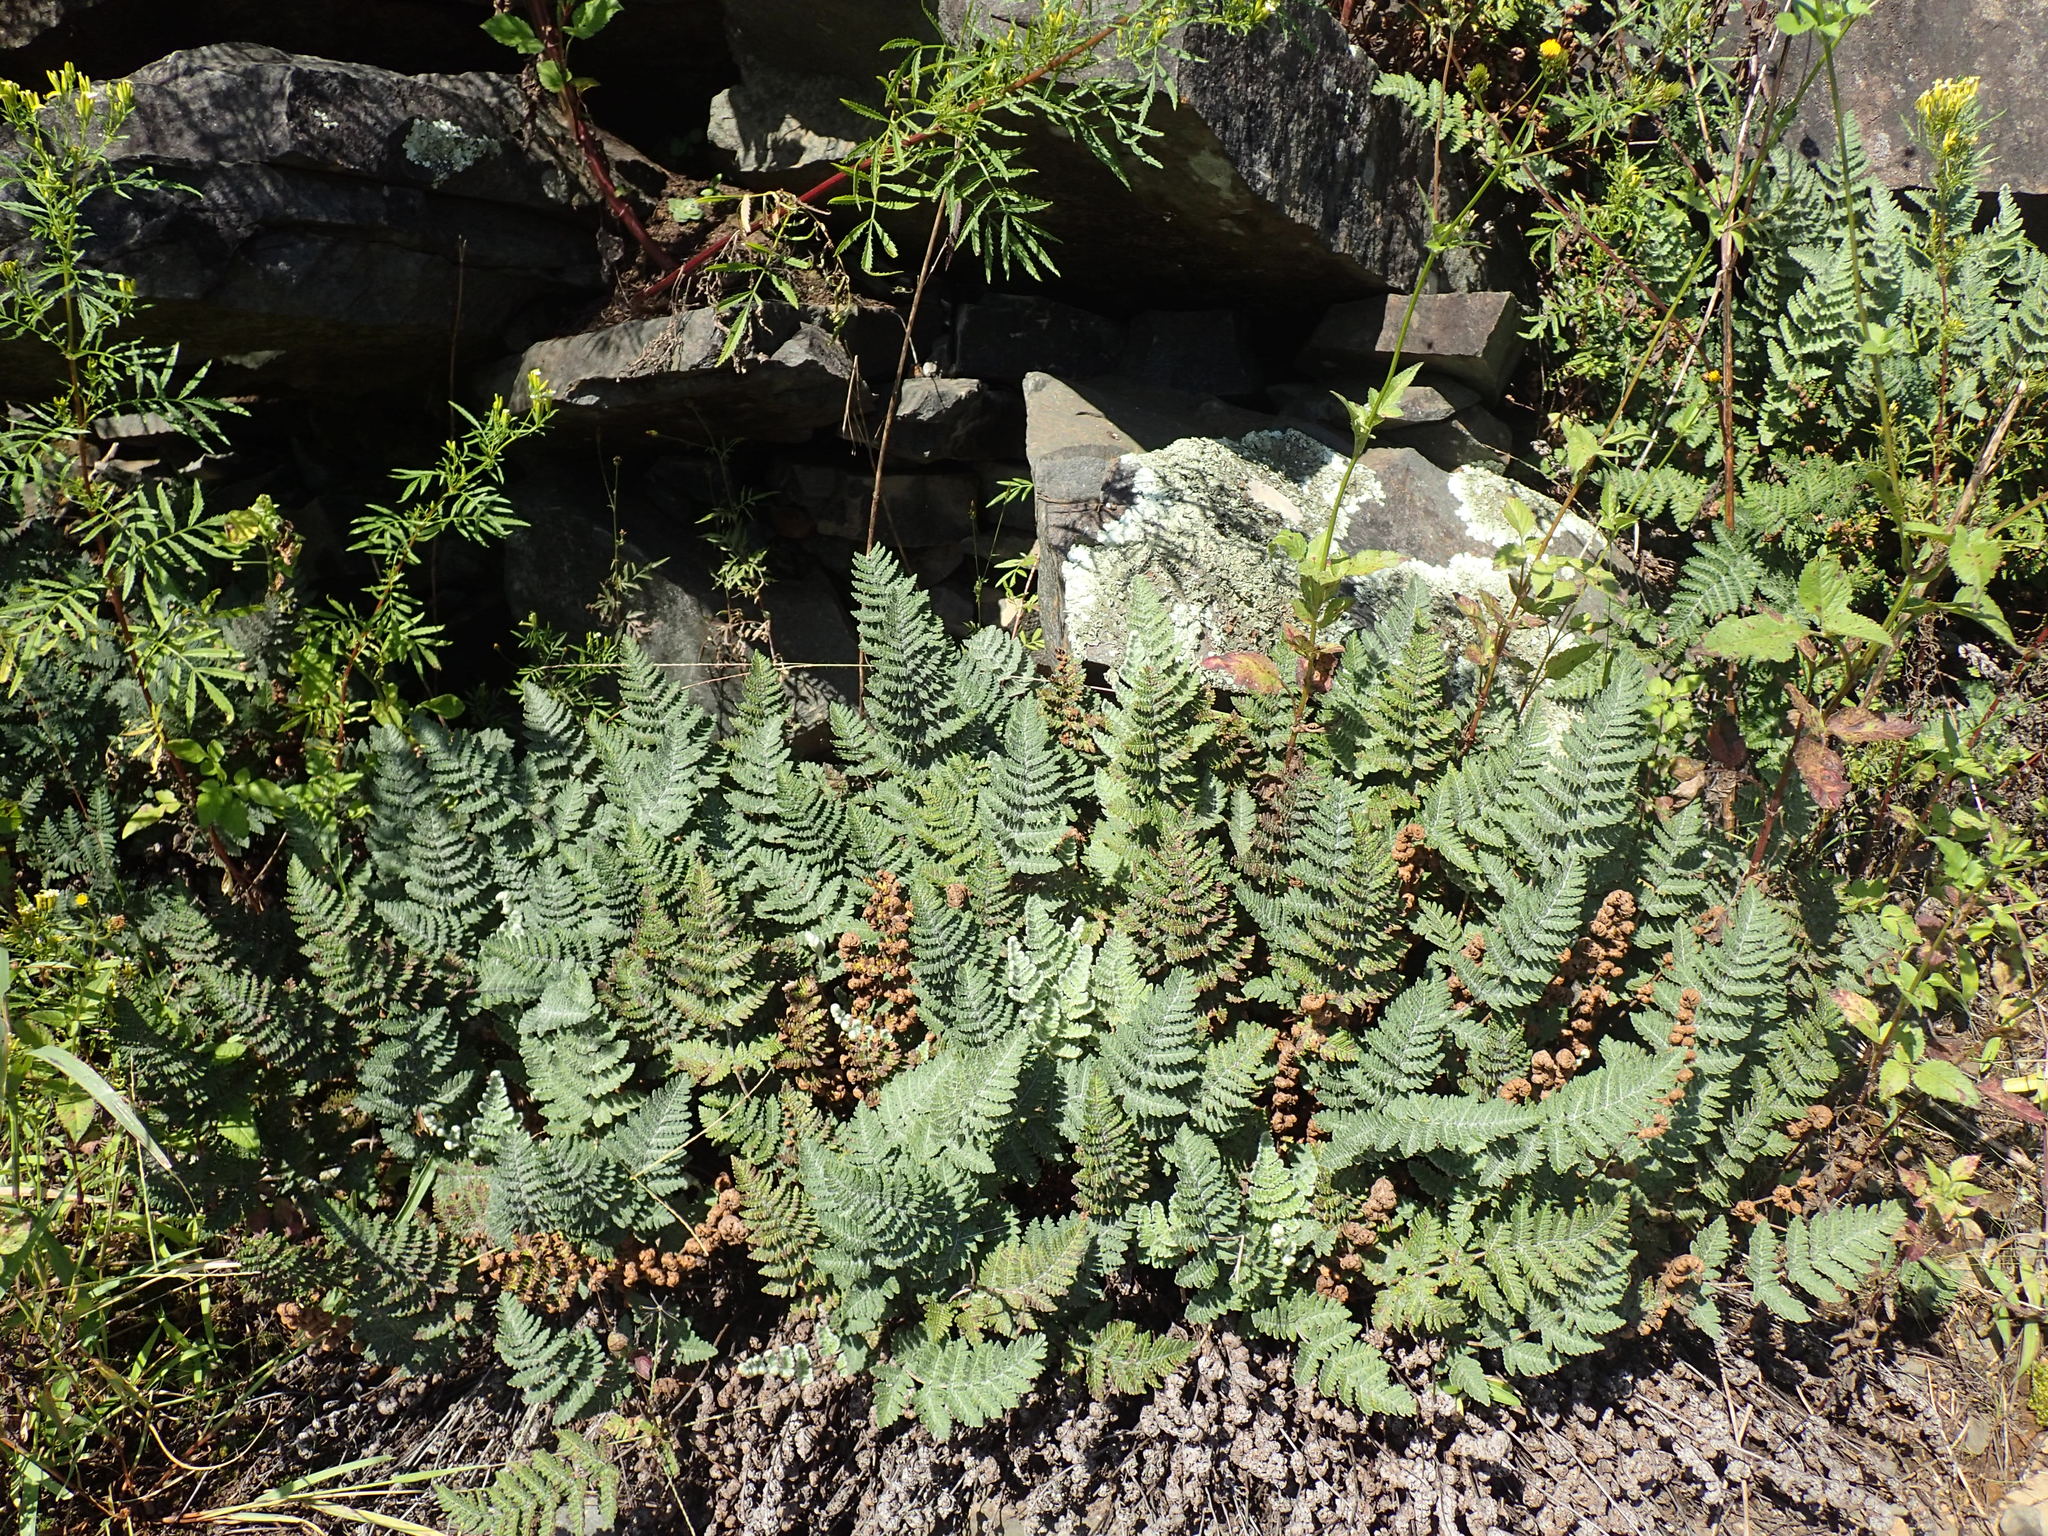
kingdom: Plantae
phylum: Tracheophyta
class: Polypodiopsida
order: Polypodiales
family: Pteridaceae
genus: Cheilanthes
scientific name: Cheilanthes eckloniana
